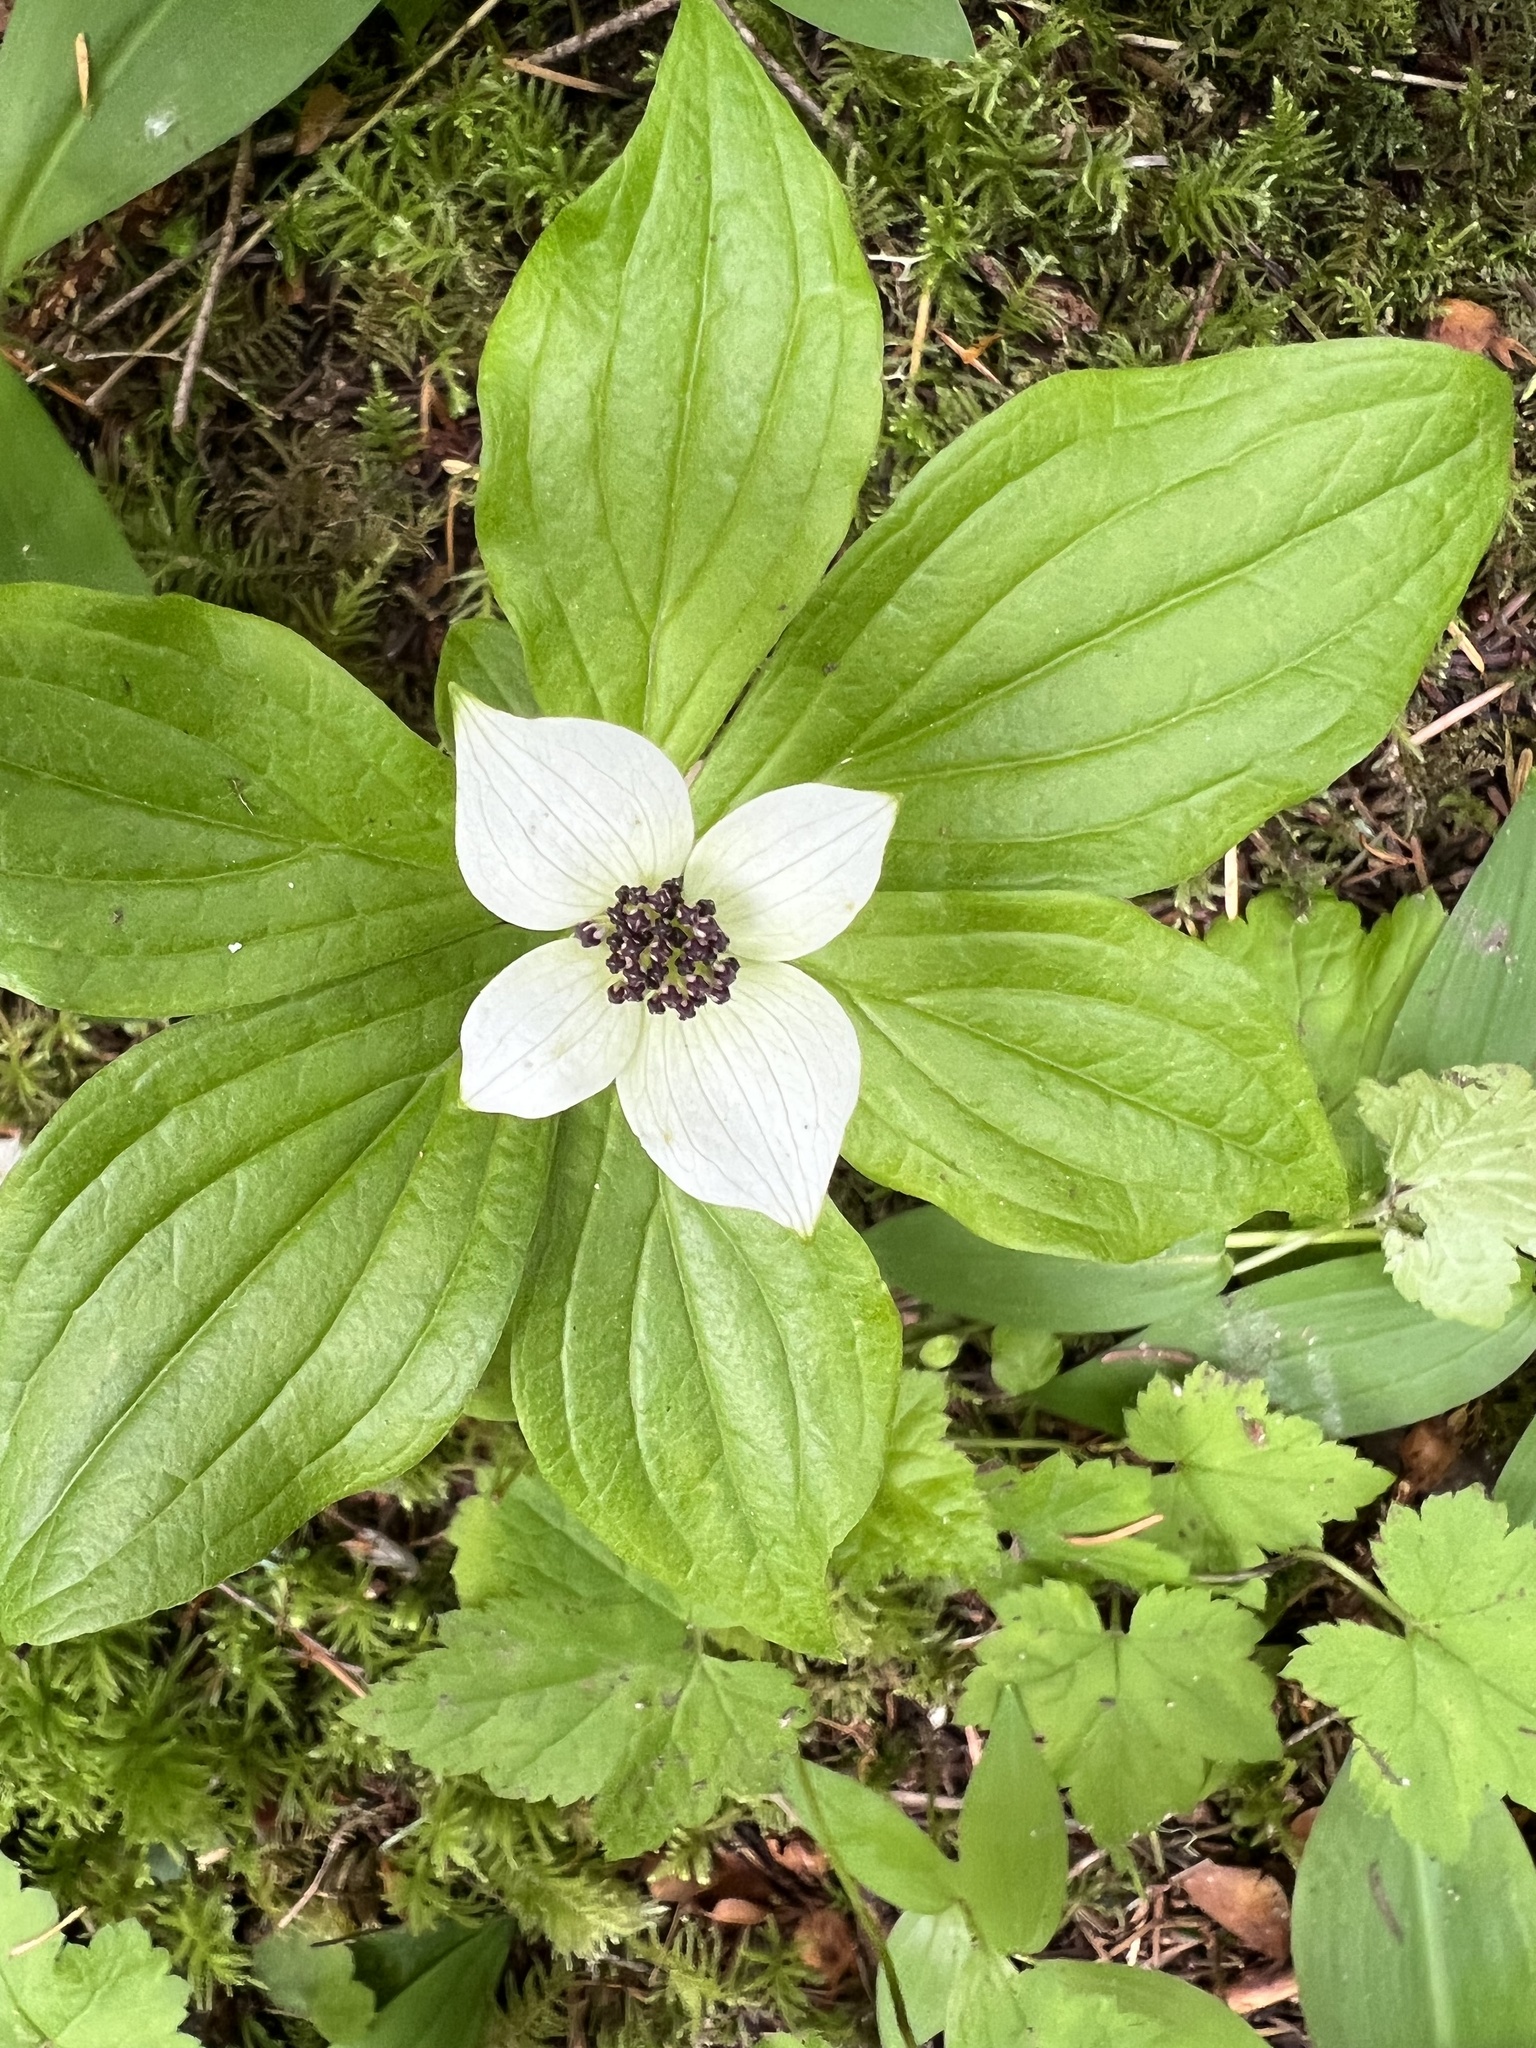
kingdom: Plantae
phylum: Tracheophyta
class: Magnoliopsida
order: Cornales
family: Cornaceae
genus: Cornus
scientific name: Cornus unalaschkensis
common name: Alaska bunchberry
